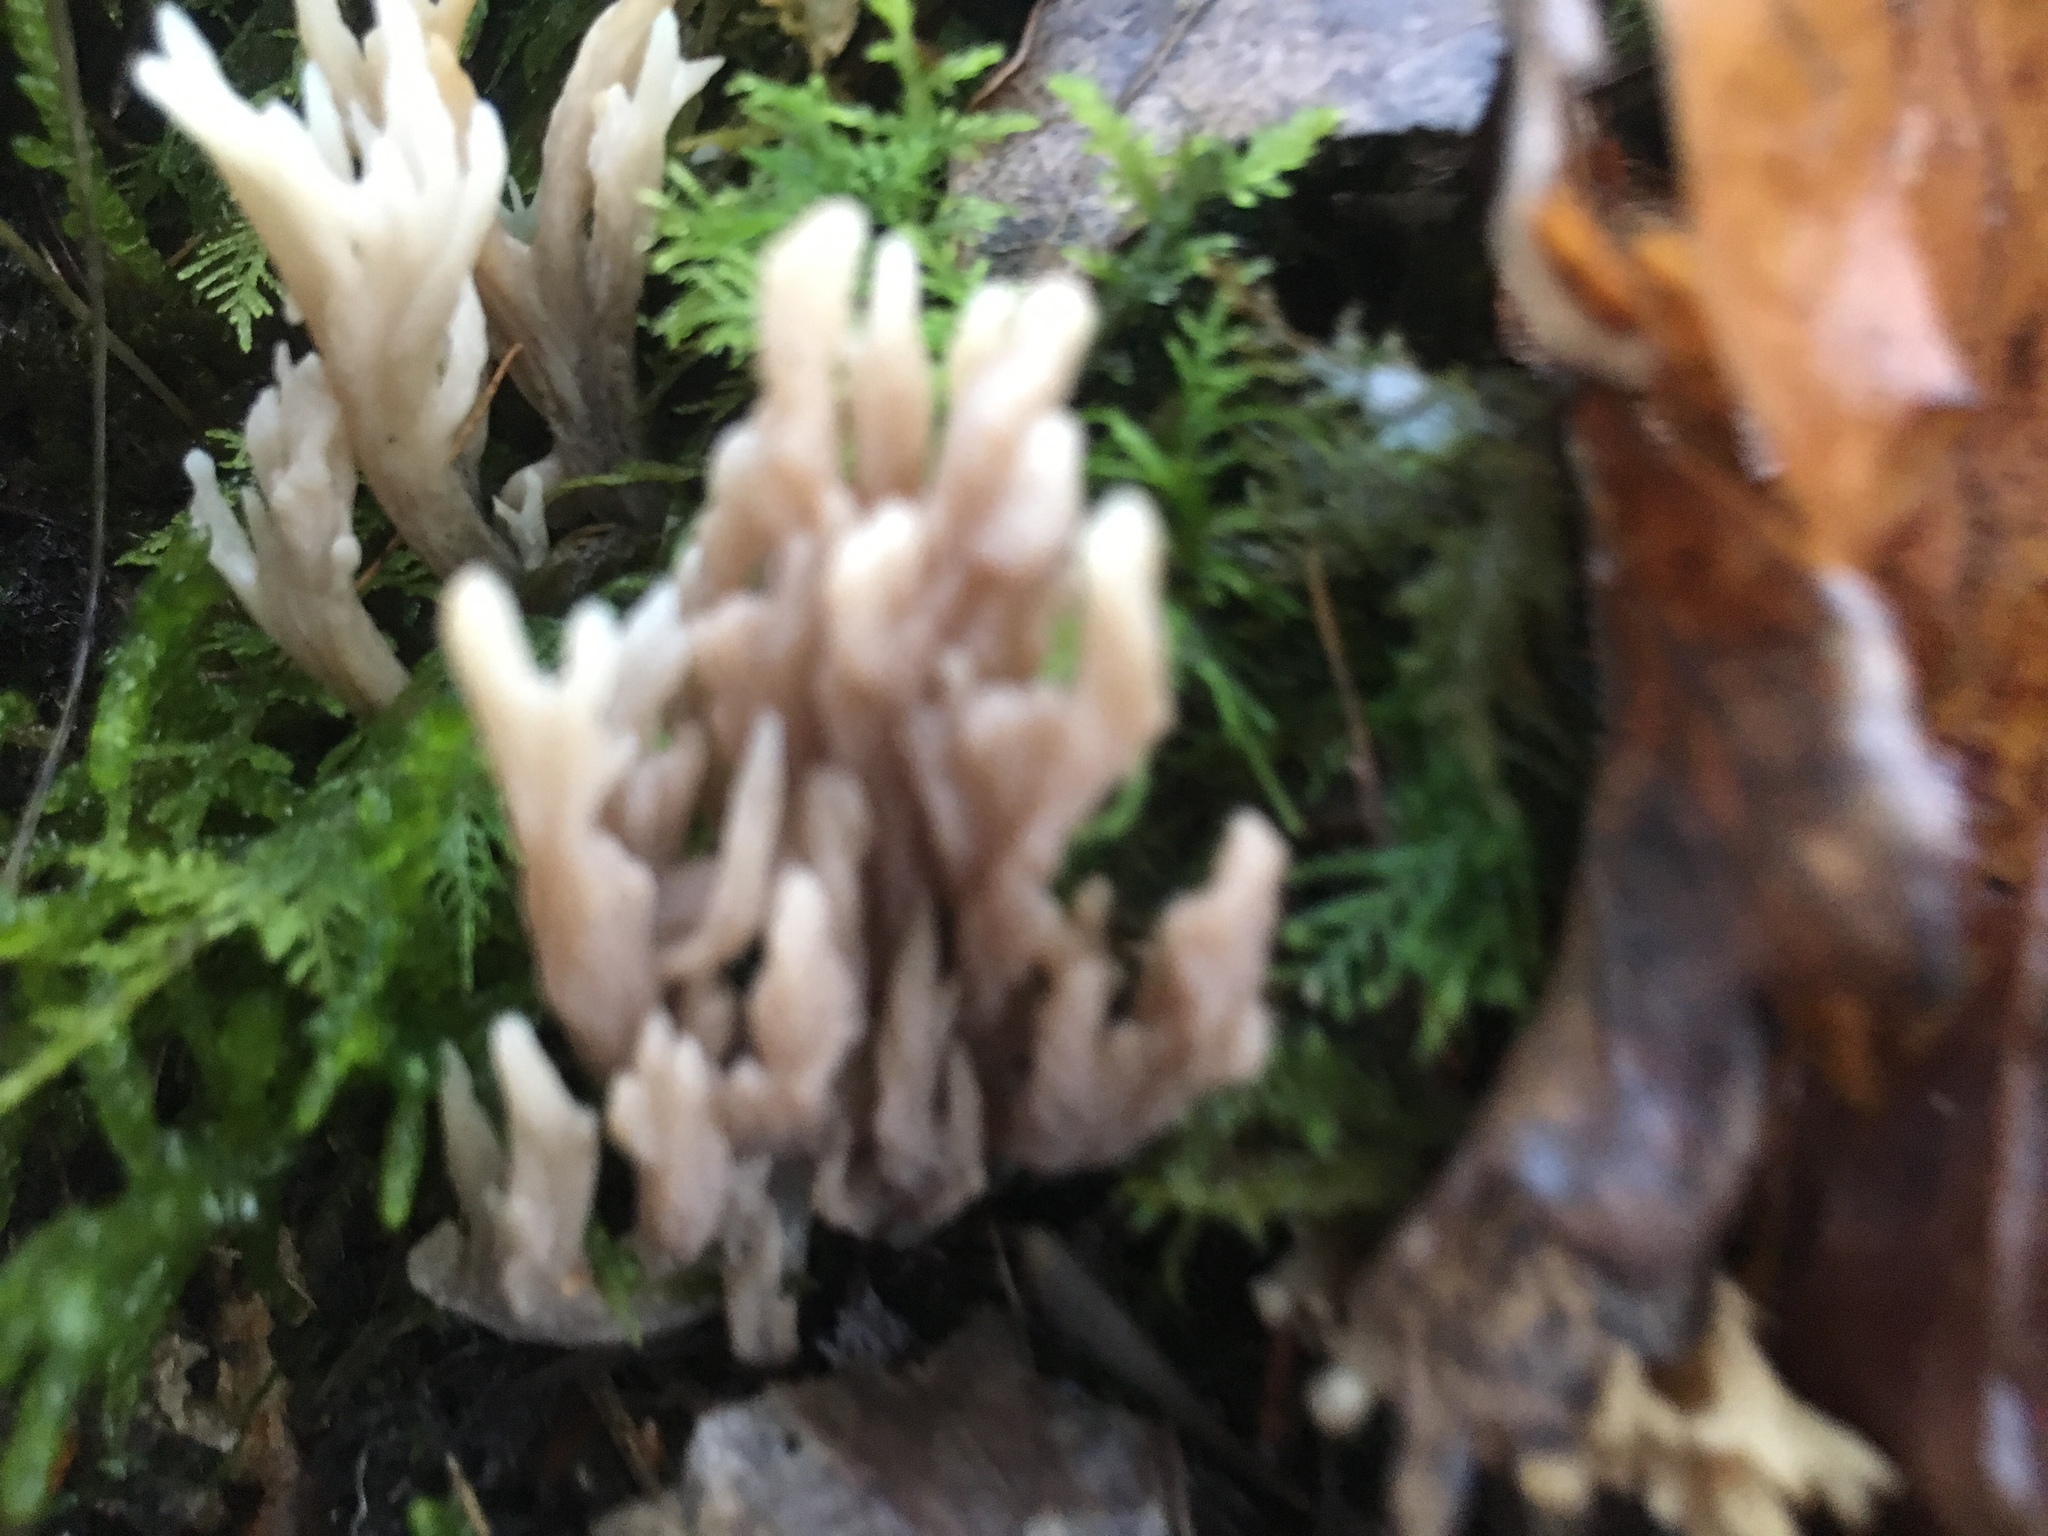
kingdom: Fungi
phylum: Basidiomycota
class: Agaricomycetes
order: Cantharellales
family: Hydnaceae
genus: Clavulina
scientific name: Clavulina coralloides
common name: Crested coral
